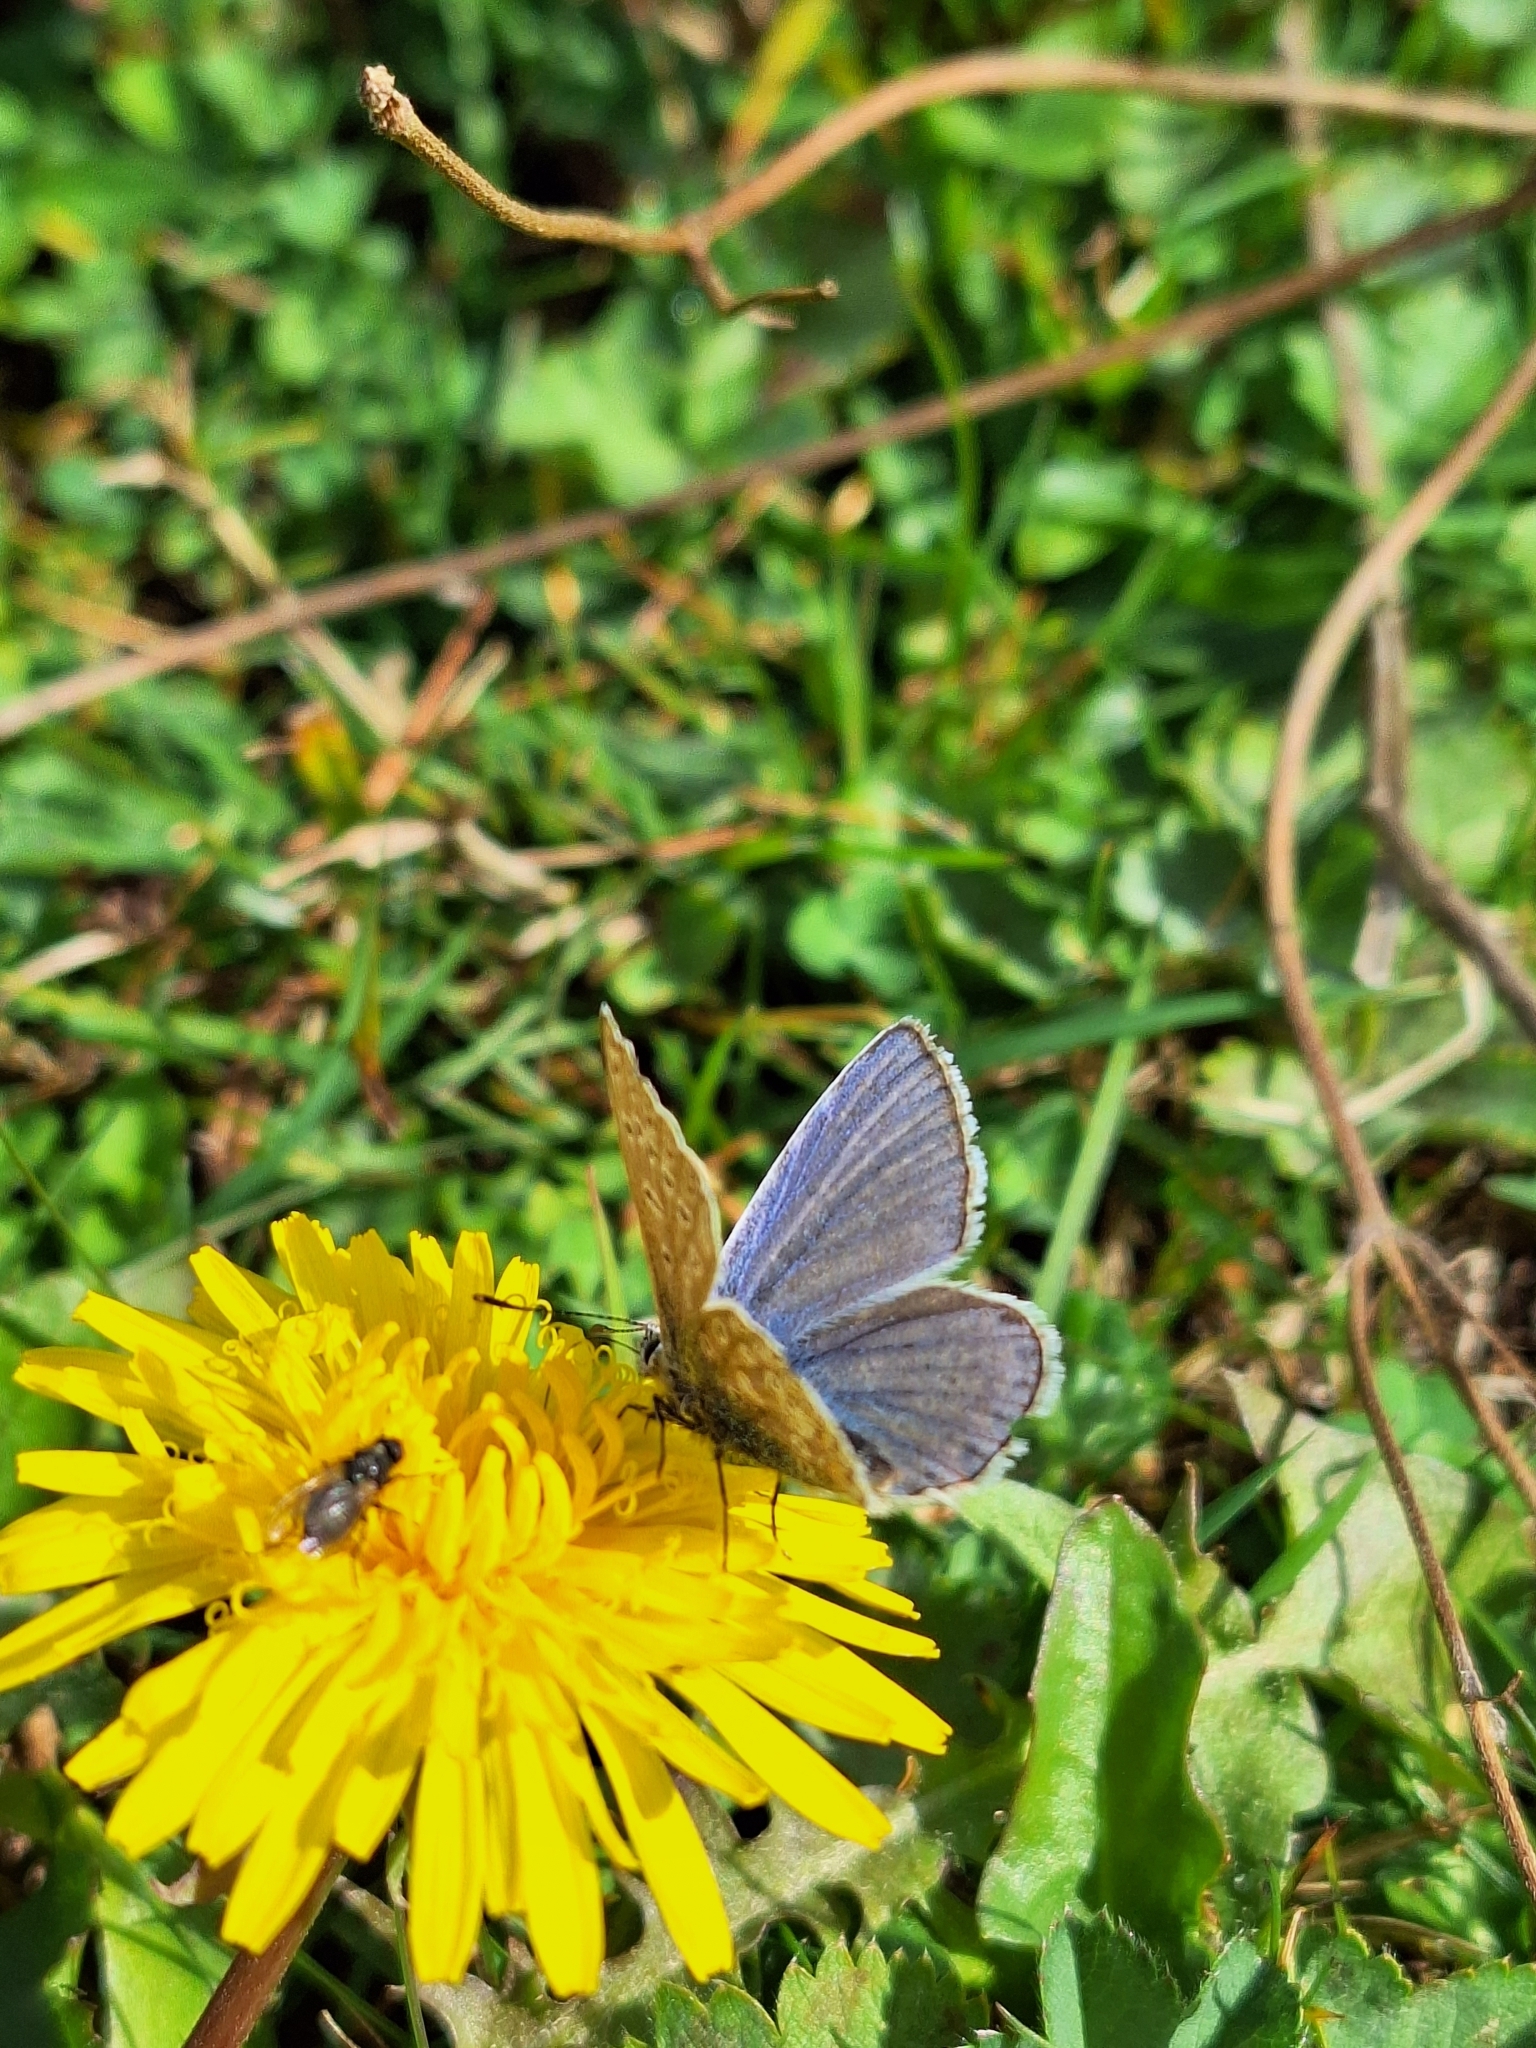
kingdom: Animalia
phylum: Arthropoda
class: Insecta
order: Lepidoptera
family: Lycaenidae
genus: Polyommatus
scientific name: Polyommatus icarus
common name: Common blue
